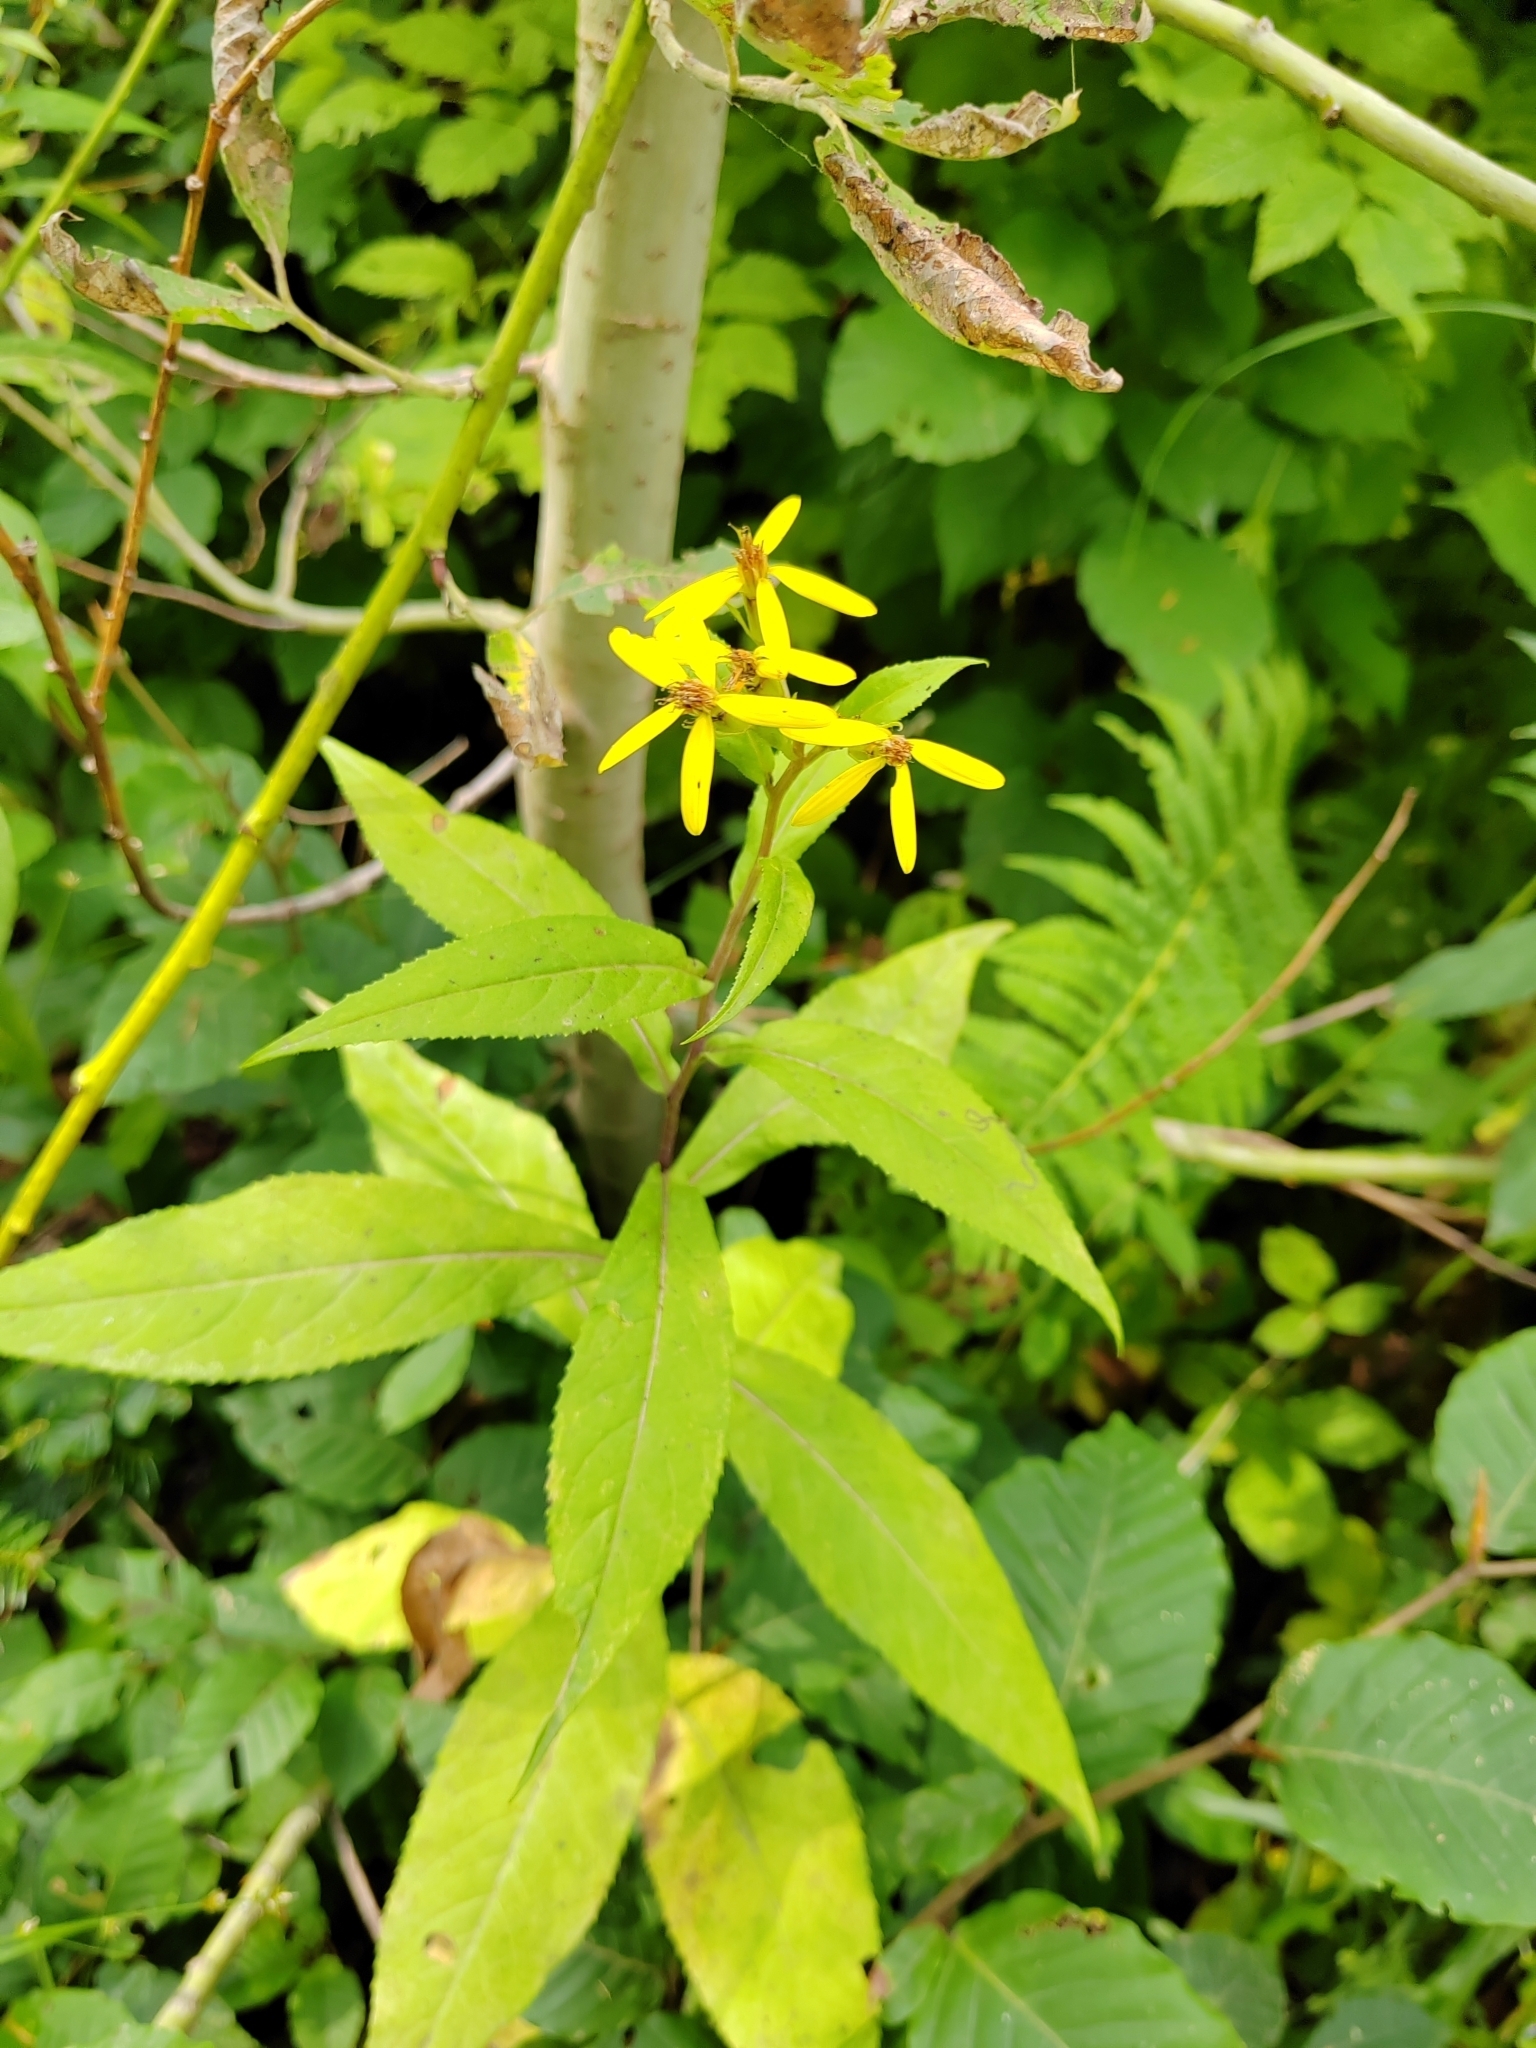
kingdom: Plantae
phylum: Tracheophyta
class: Magnoliopsida
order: Asterales
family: Asteraceae
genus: Senecio
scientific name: Senecio propinquus
